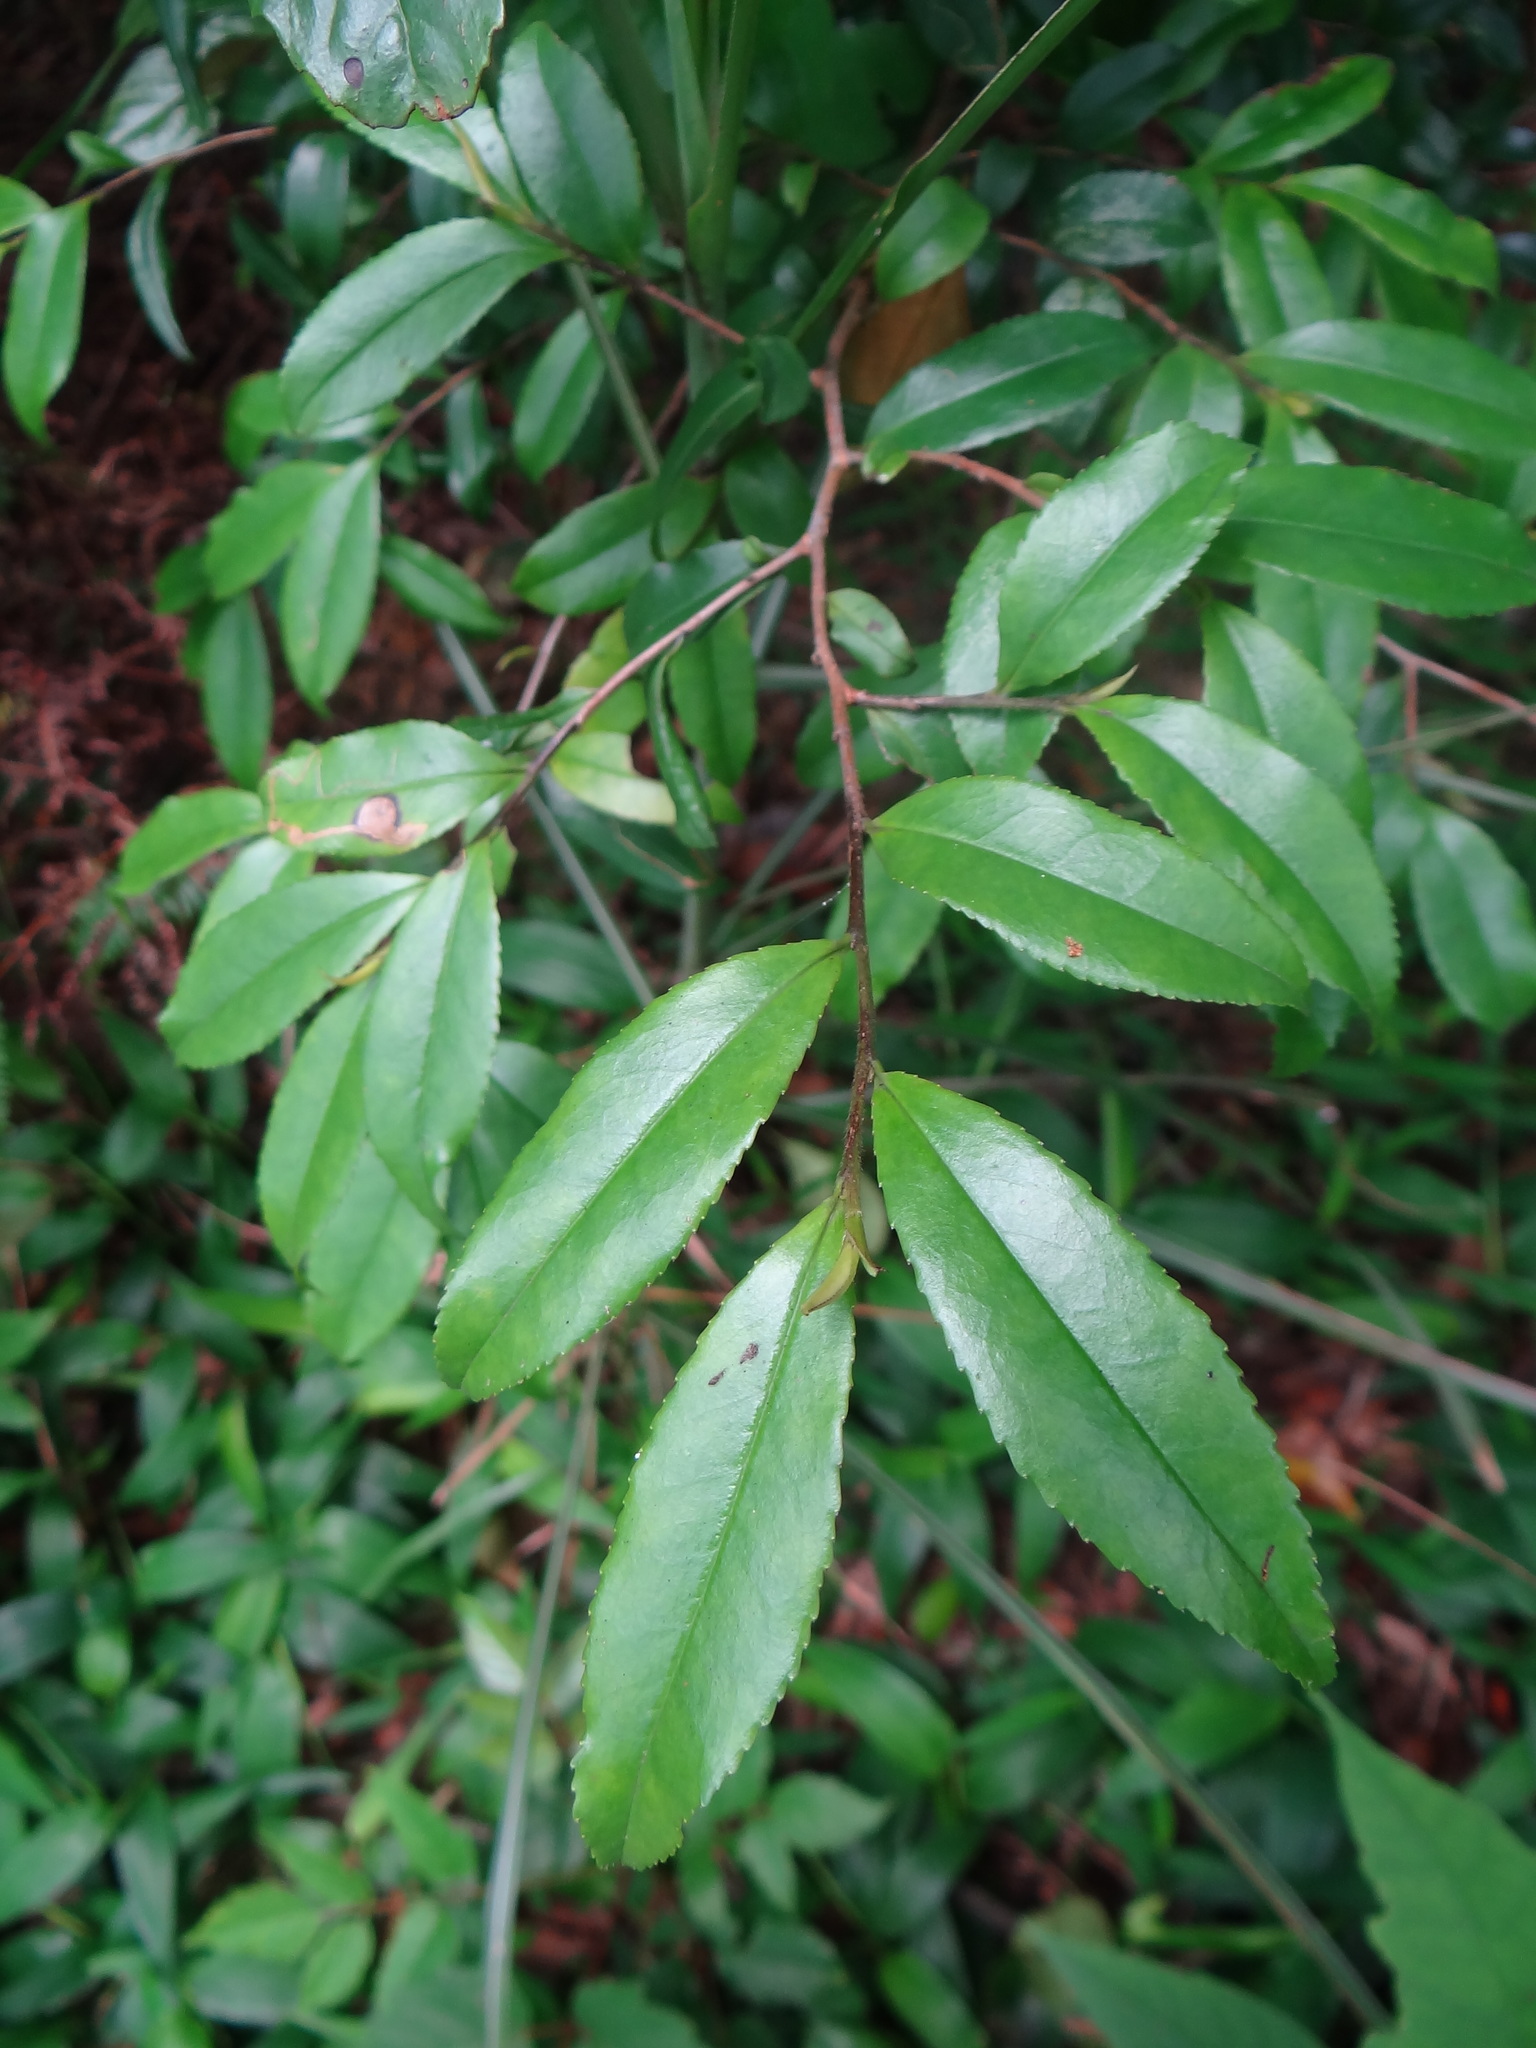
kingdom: Plantae
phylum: Tracheophyta
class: Magnoliopsida
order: Ericales
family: Pentaphylacaceae
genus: Eurya
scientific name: Eurya loquaiana
